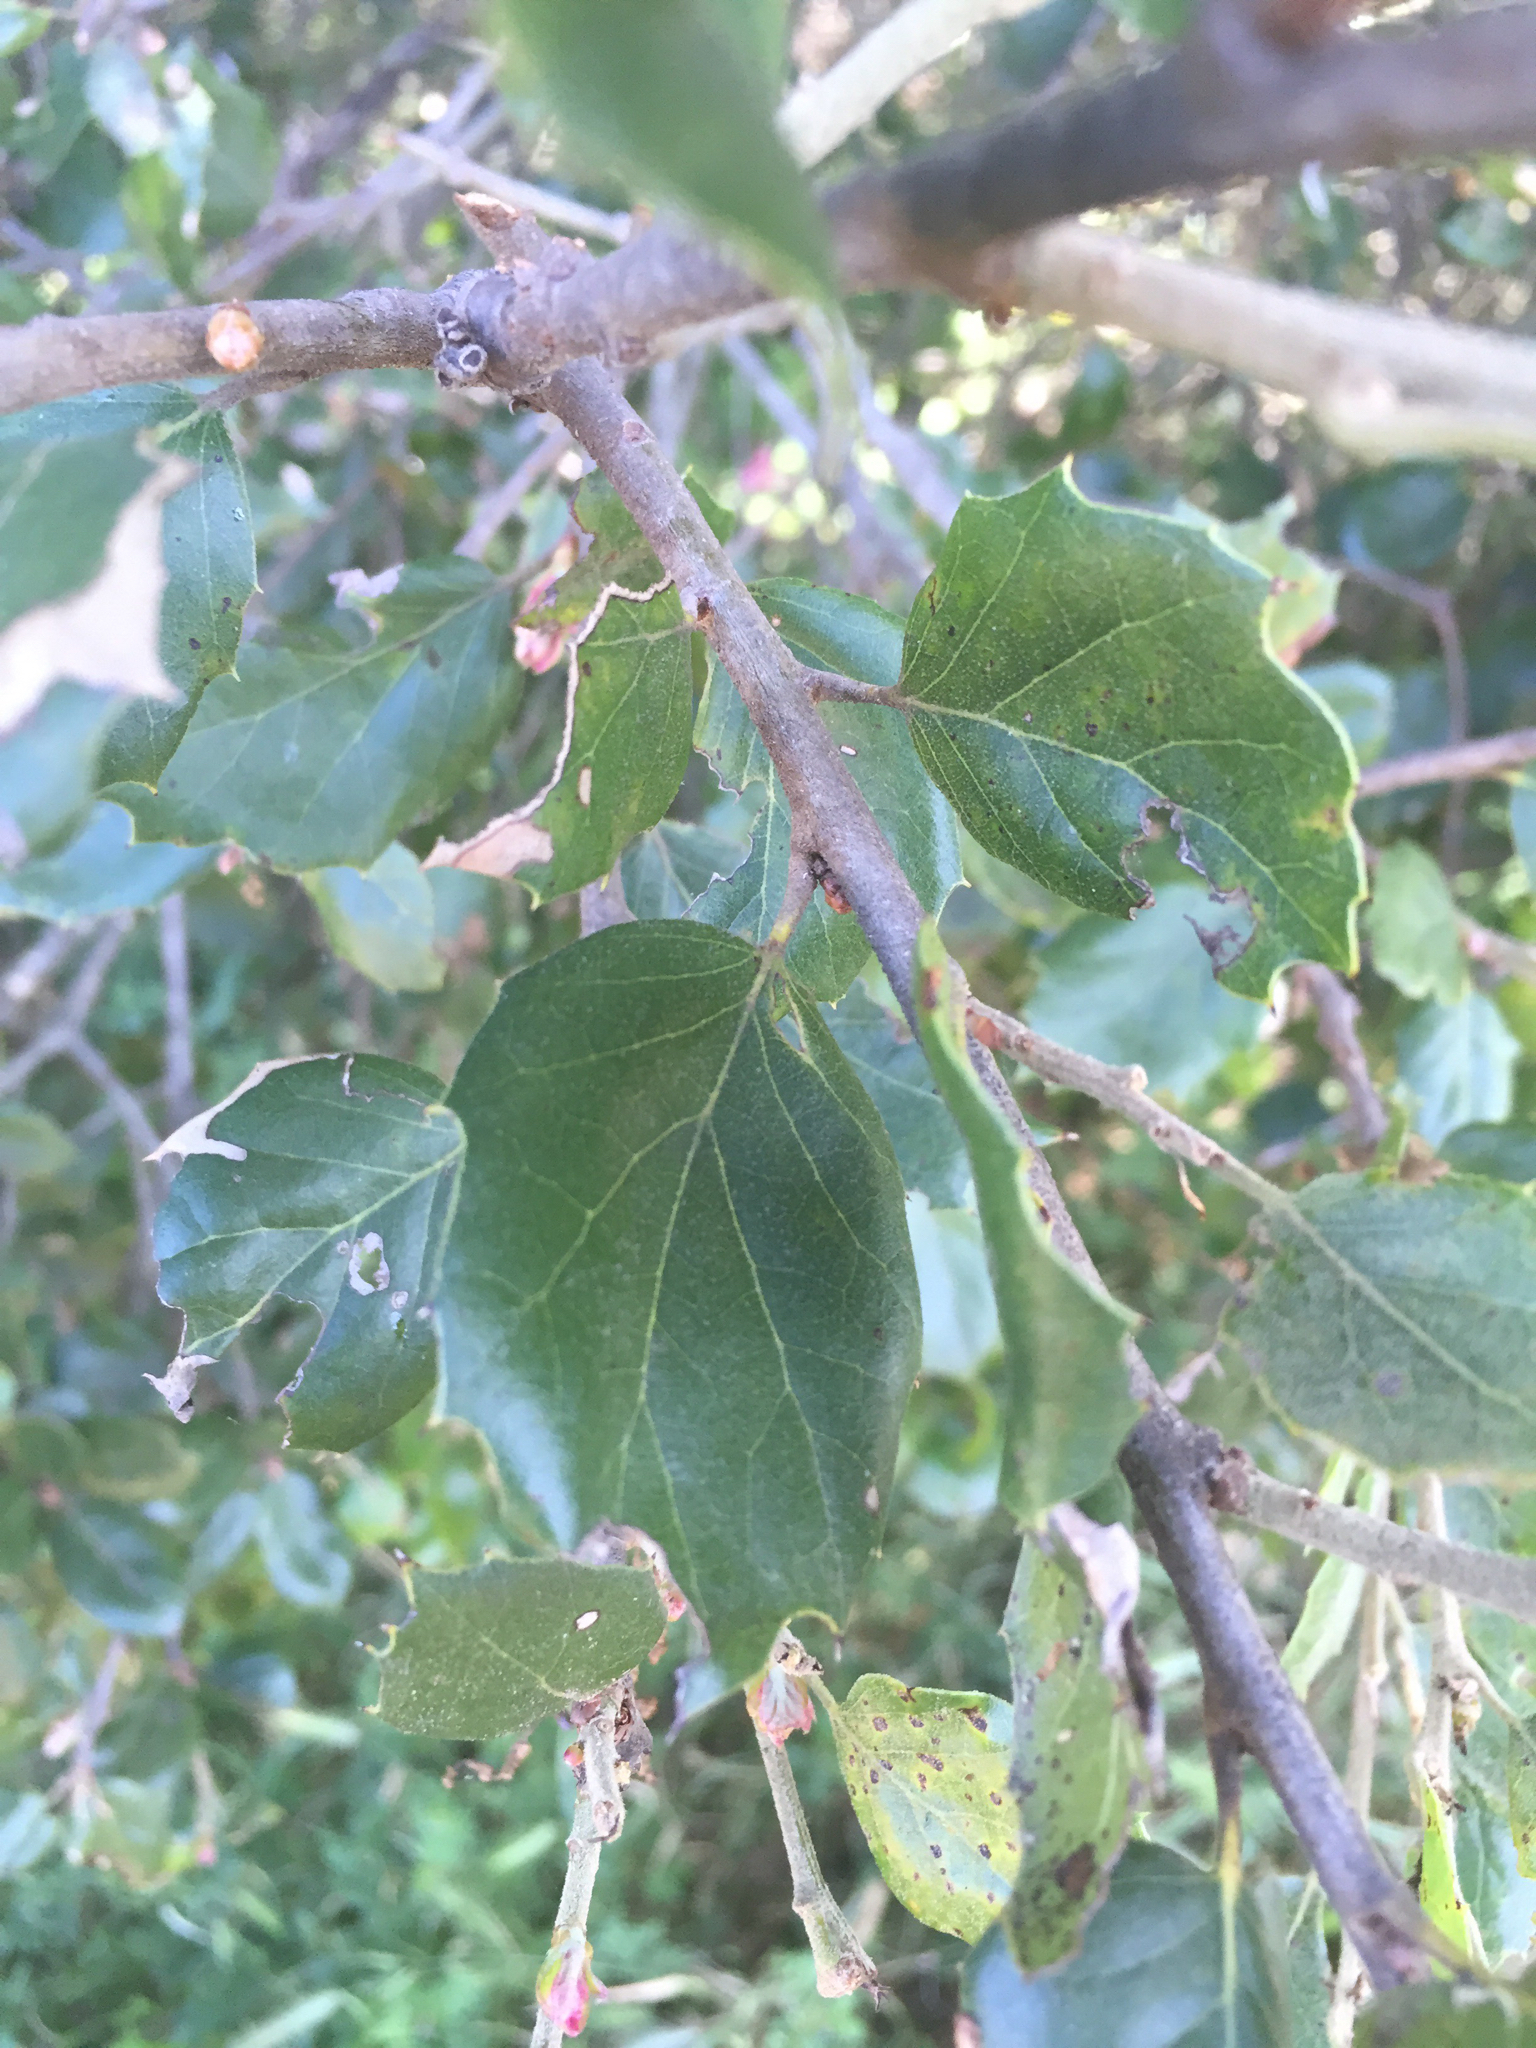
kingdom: Plantae
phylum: Tracheophyta
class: Magnoliopsida
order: Fagales
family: Fagaceae
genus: Quercus
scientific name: Quercus agrifolia
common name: California live oak
